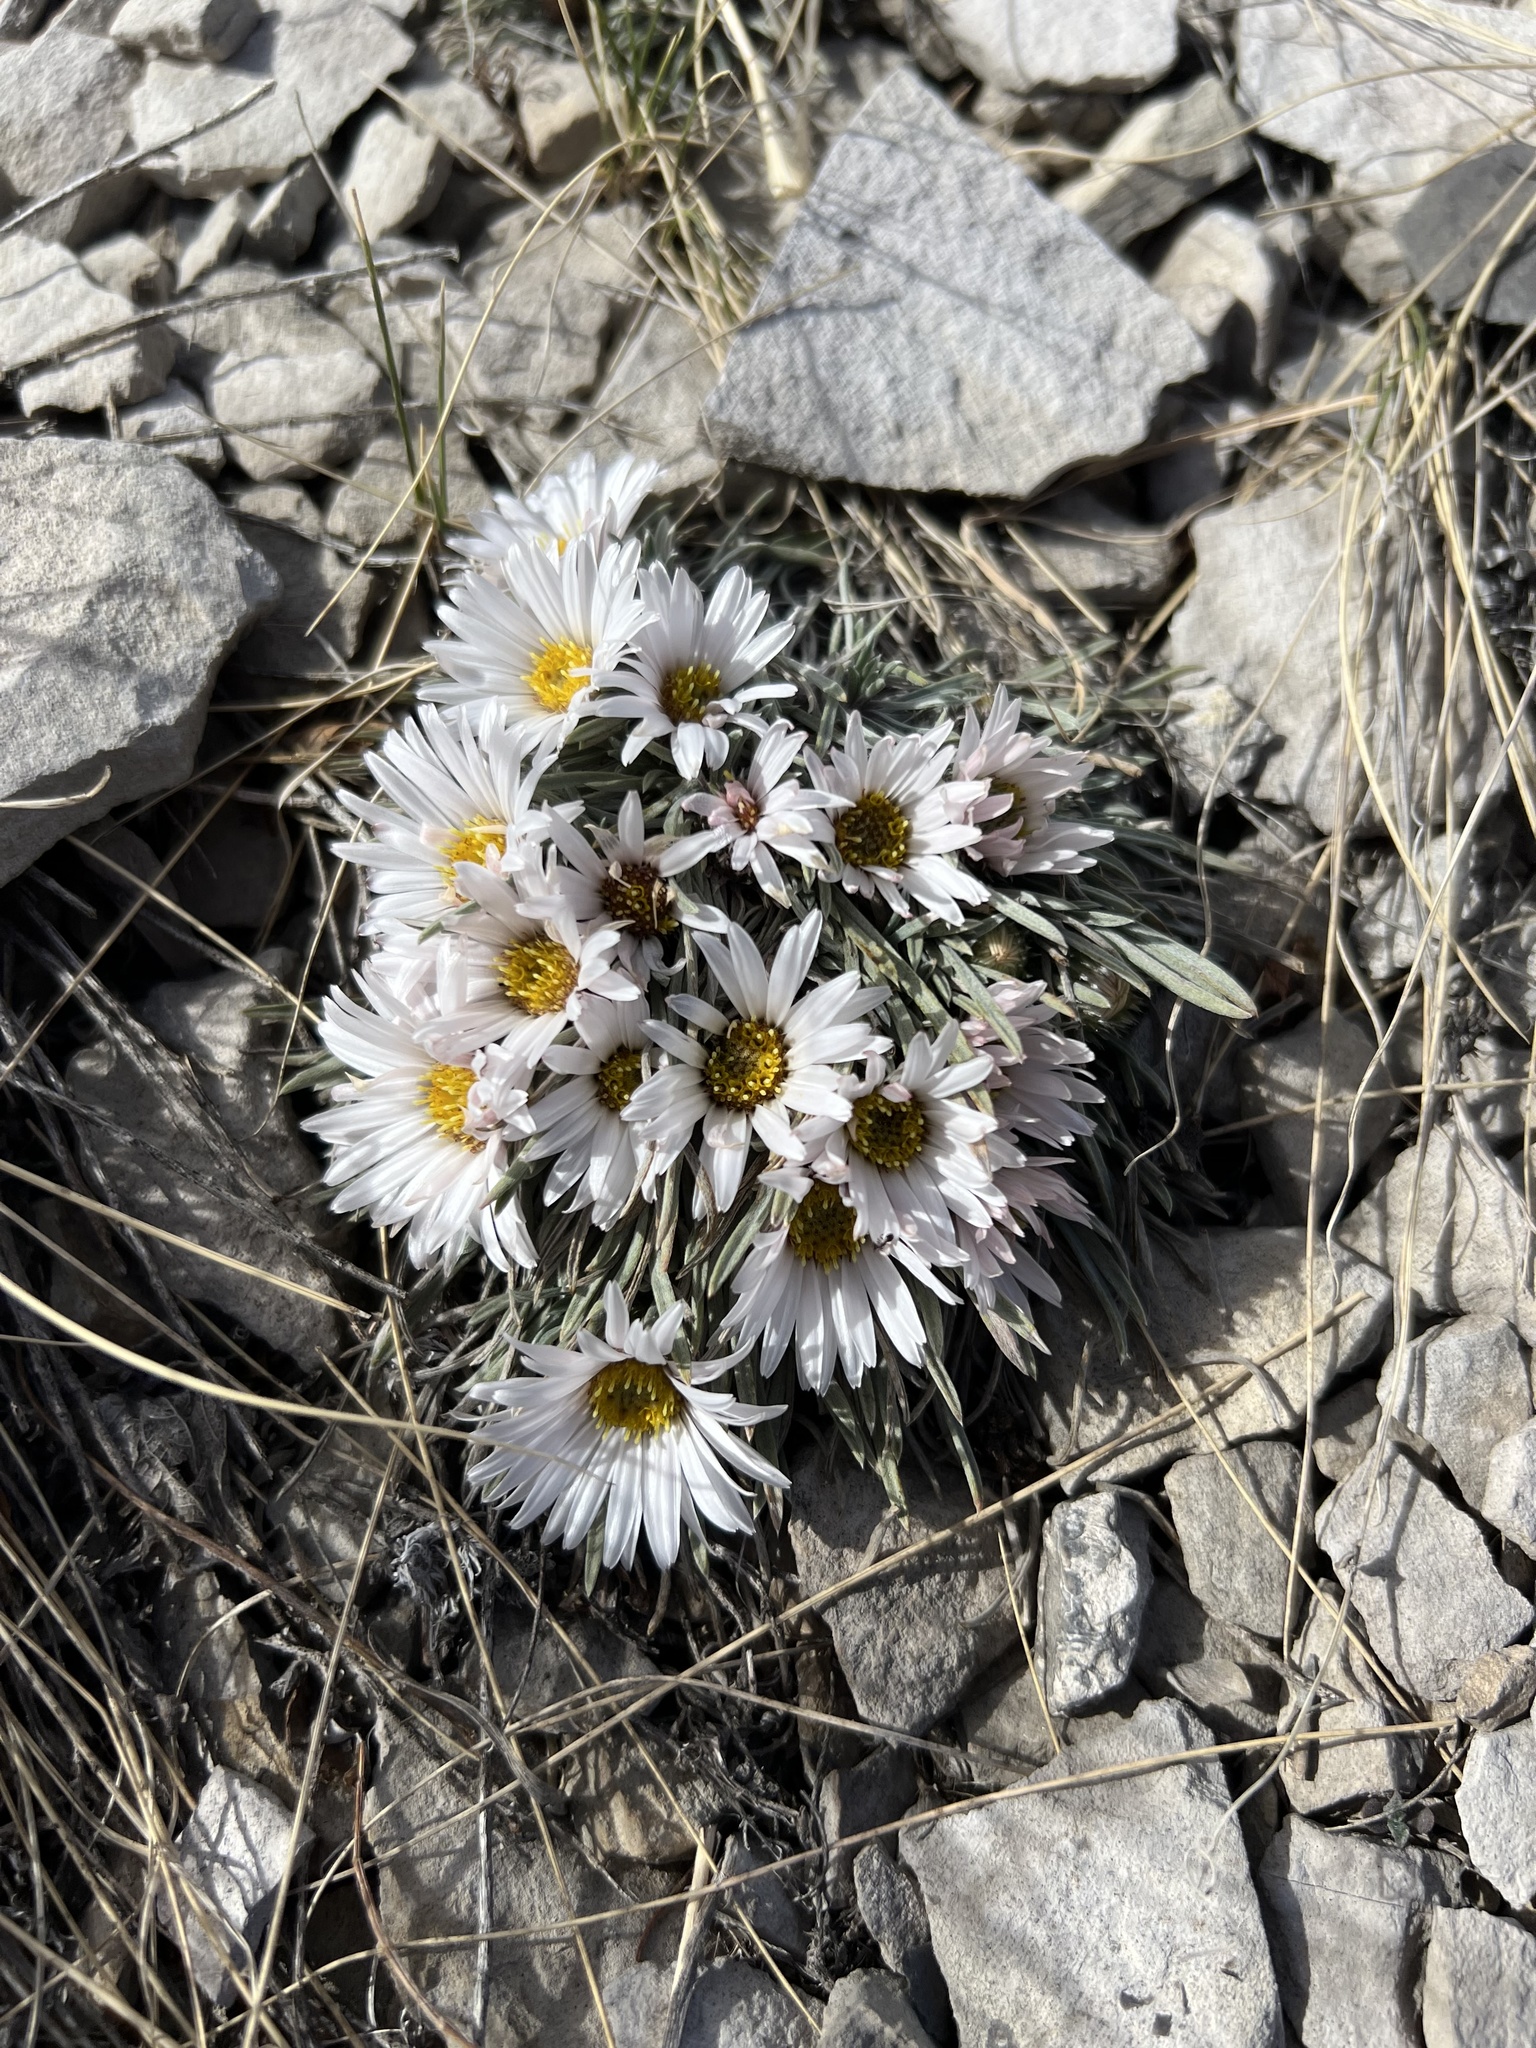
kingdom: Plantae
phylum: Tracheophyta
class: Magnoliopsida
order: Asterales
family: Asteraceae
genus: Townsendia
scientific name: Townsendia hookeri
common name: Hooker's townsend daisy
